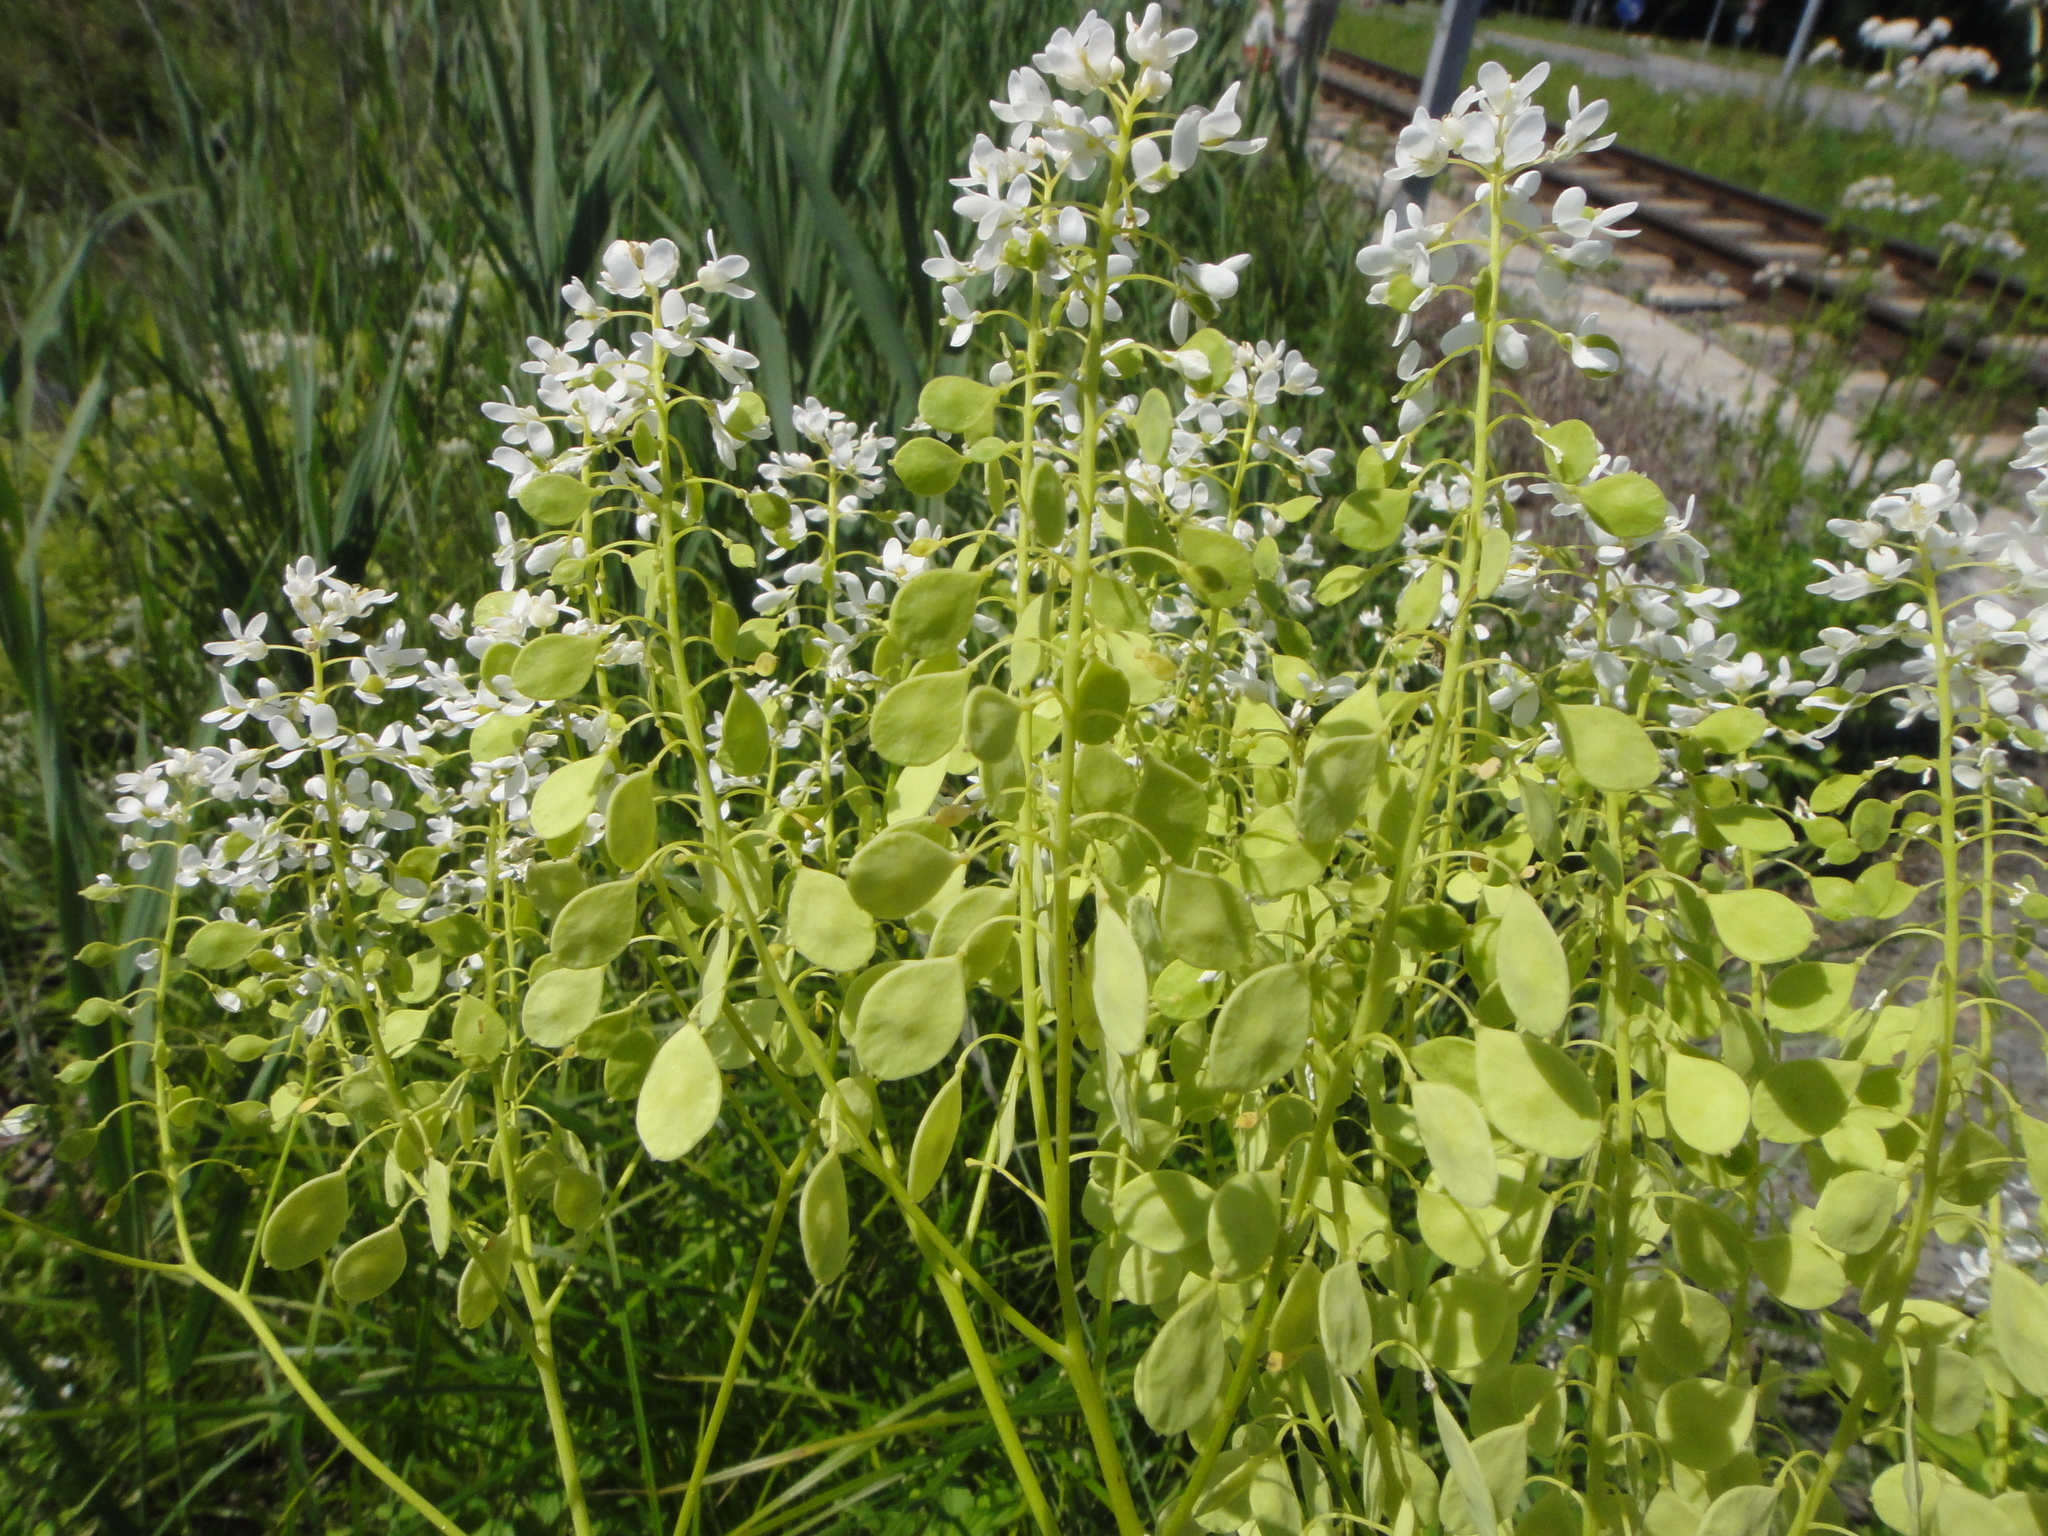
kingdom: Plantae
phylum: Tracheophyta
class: Magnoliopsida
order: Brassicales
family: Brassicaceae
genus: Peltaria
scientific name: Peltaria alliacea
